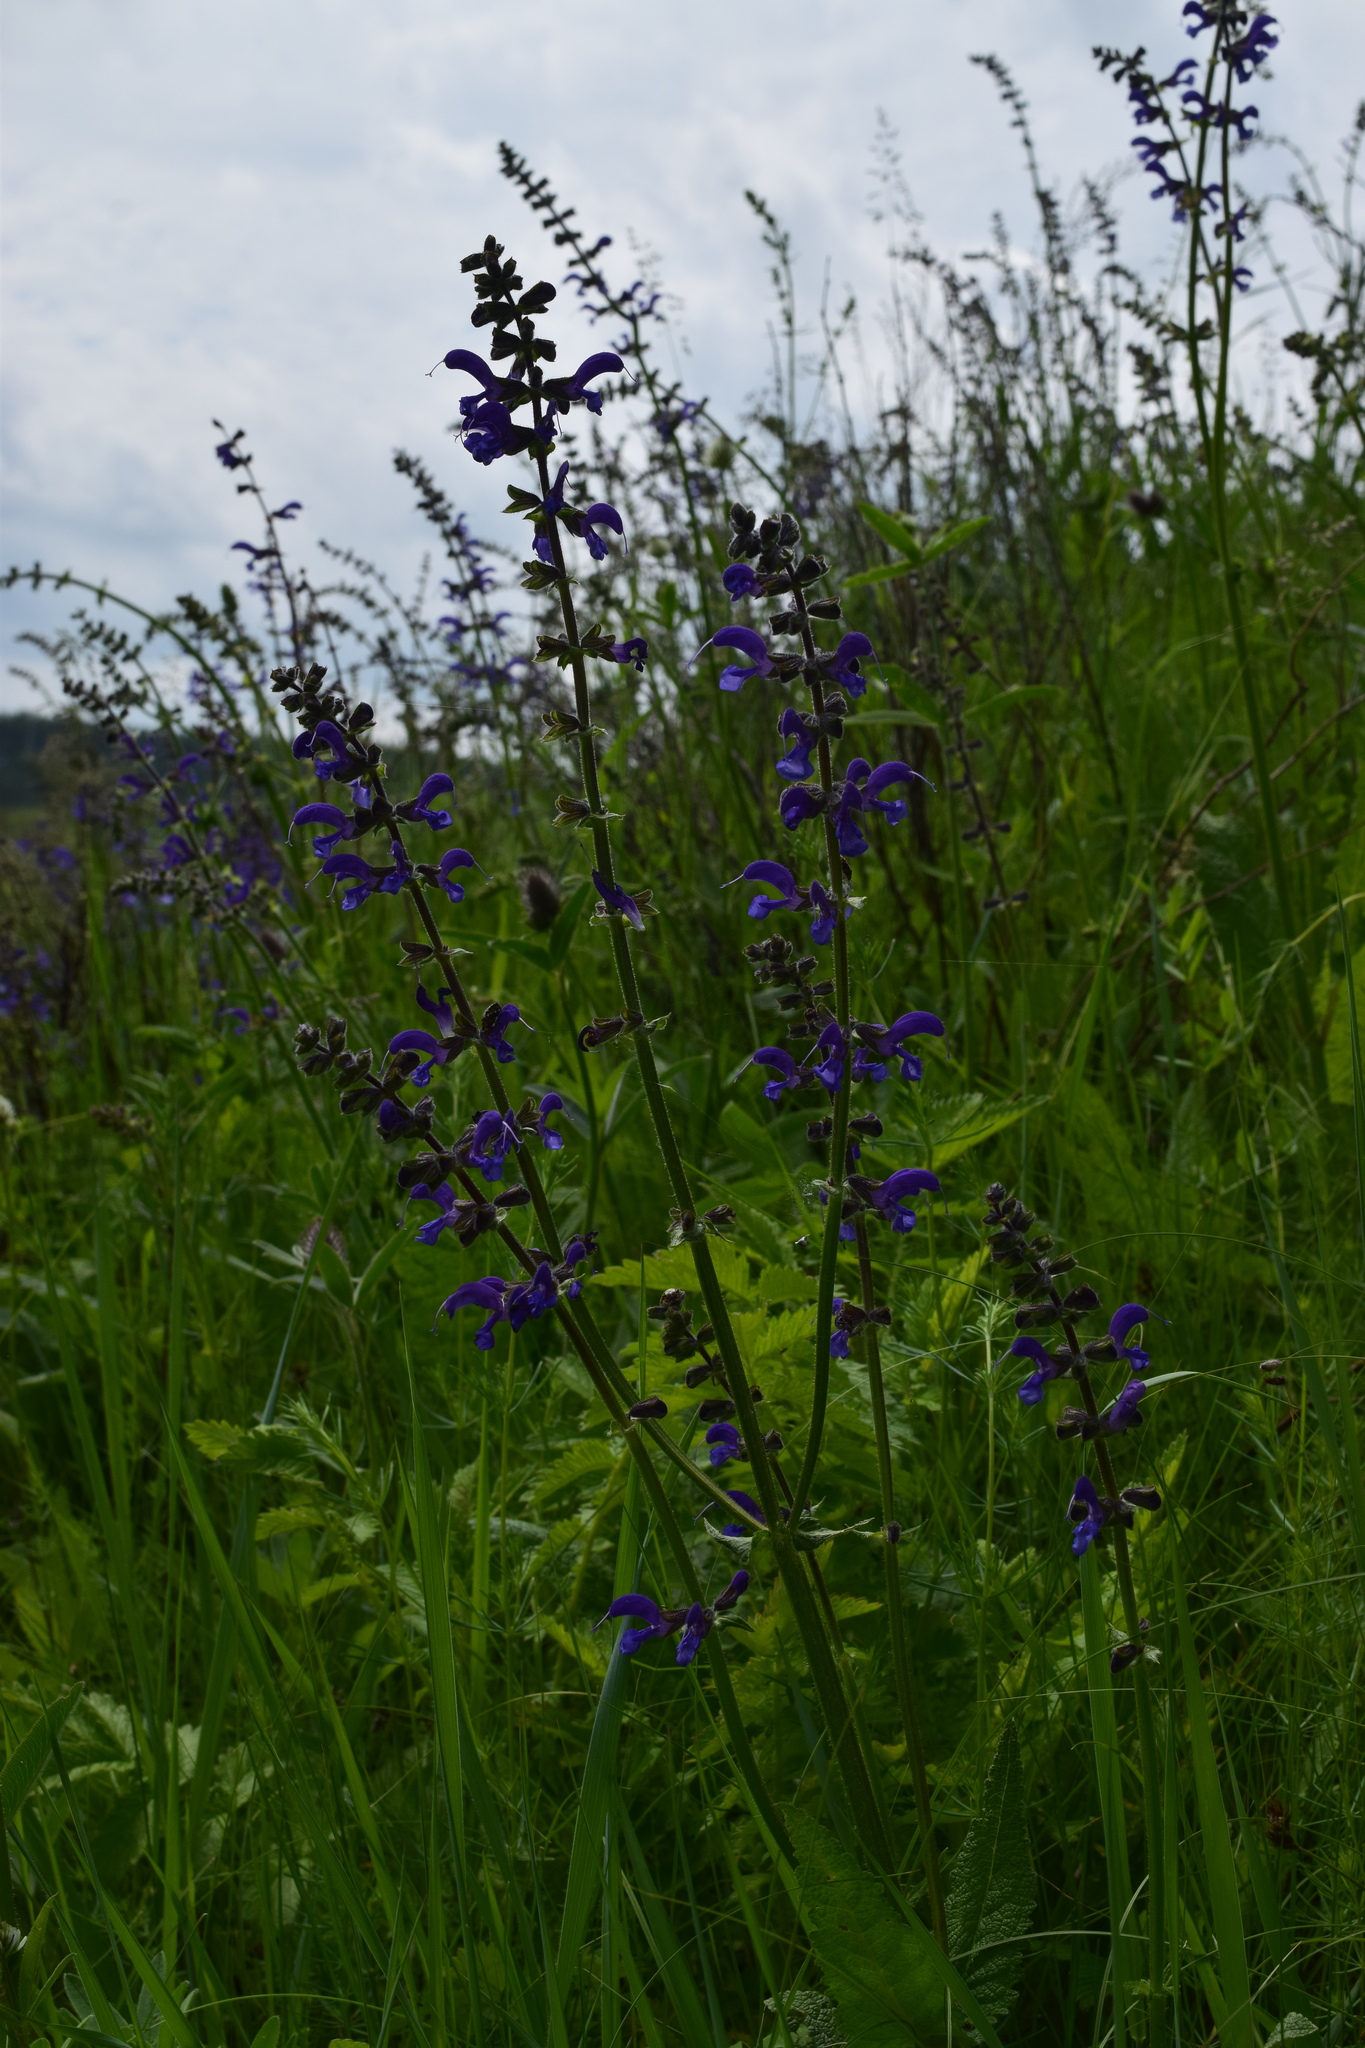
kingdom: Plantae
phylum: Tracheophyta
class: Magnoliopsida
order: Lamiales
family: Lamiaceae
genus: Salvia
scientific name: Salvia pratensis
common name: Meadow sage
